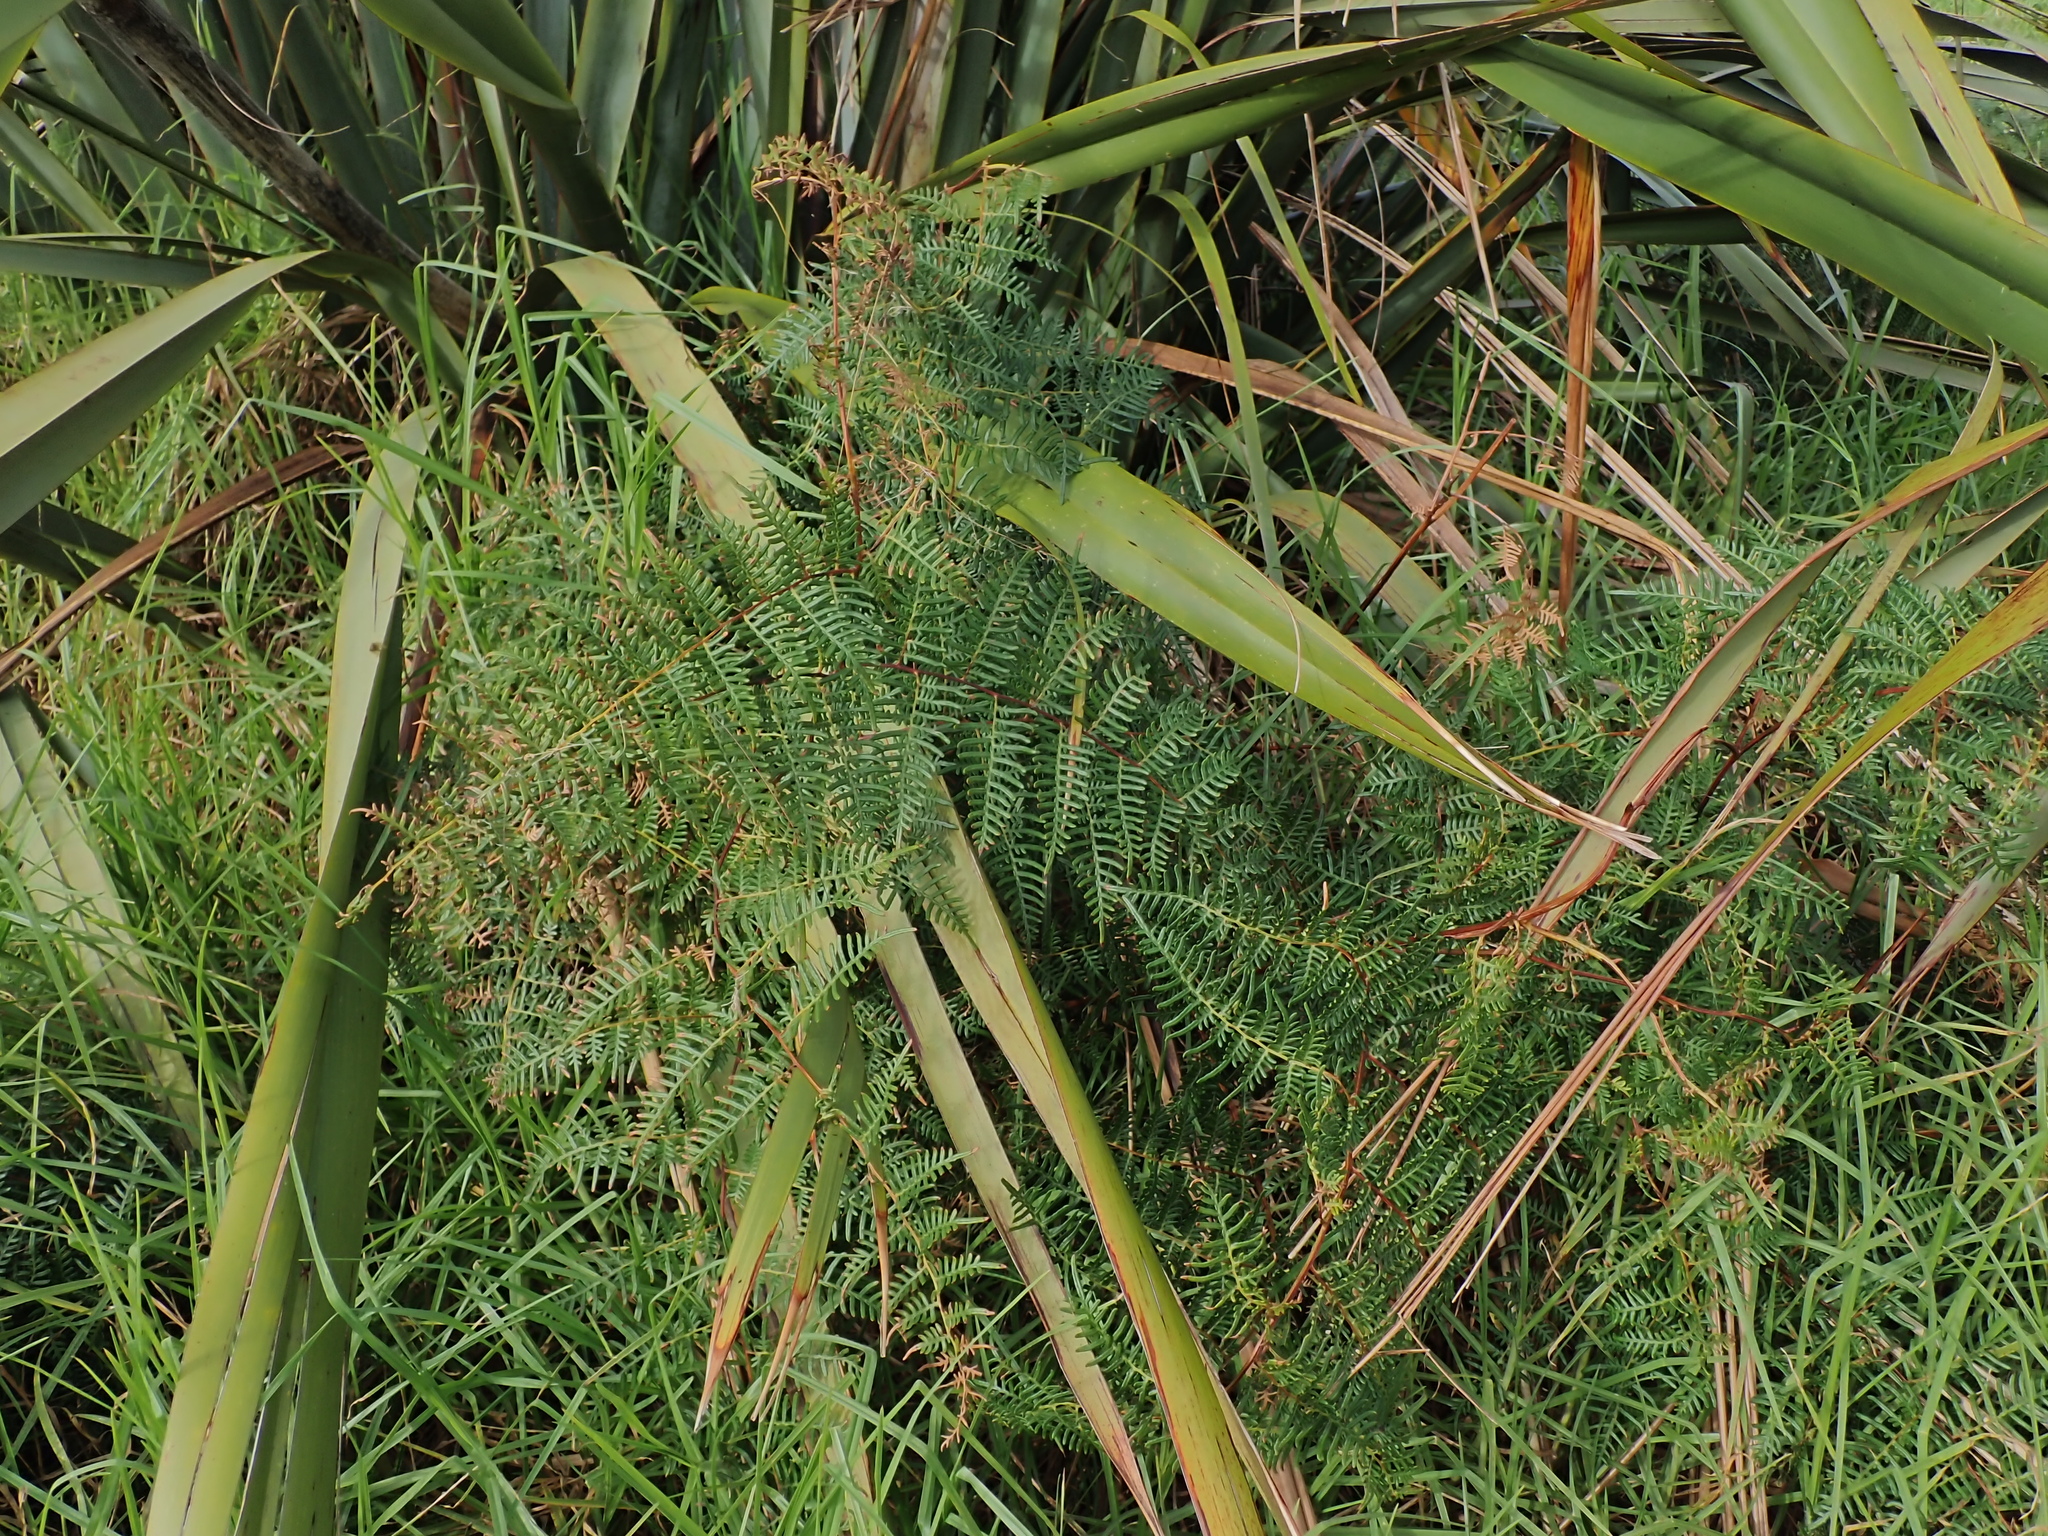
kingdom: Plantae
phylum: Tracheophyta
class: Polypodiopsida
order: Polypodiales
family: Dennstaedtiaceae
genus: Pteridium
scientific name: Pteridium esculentum
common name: Bracken fern
